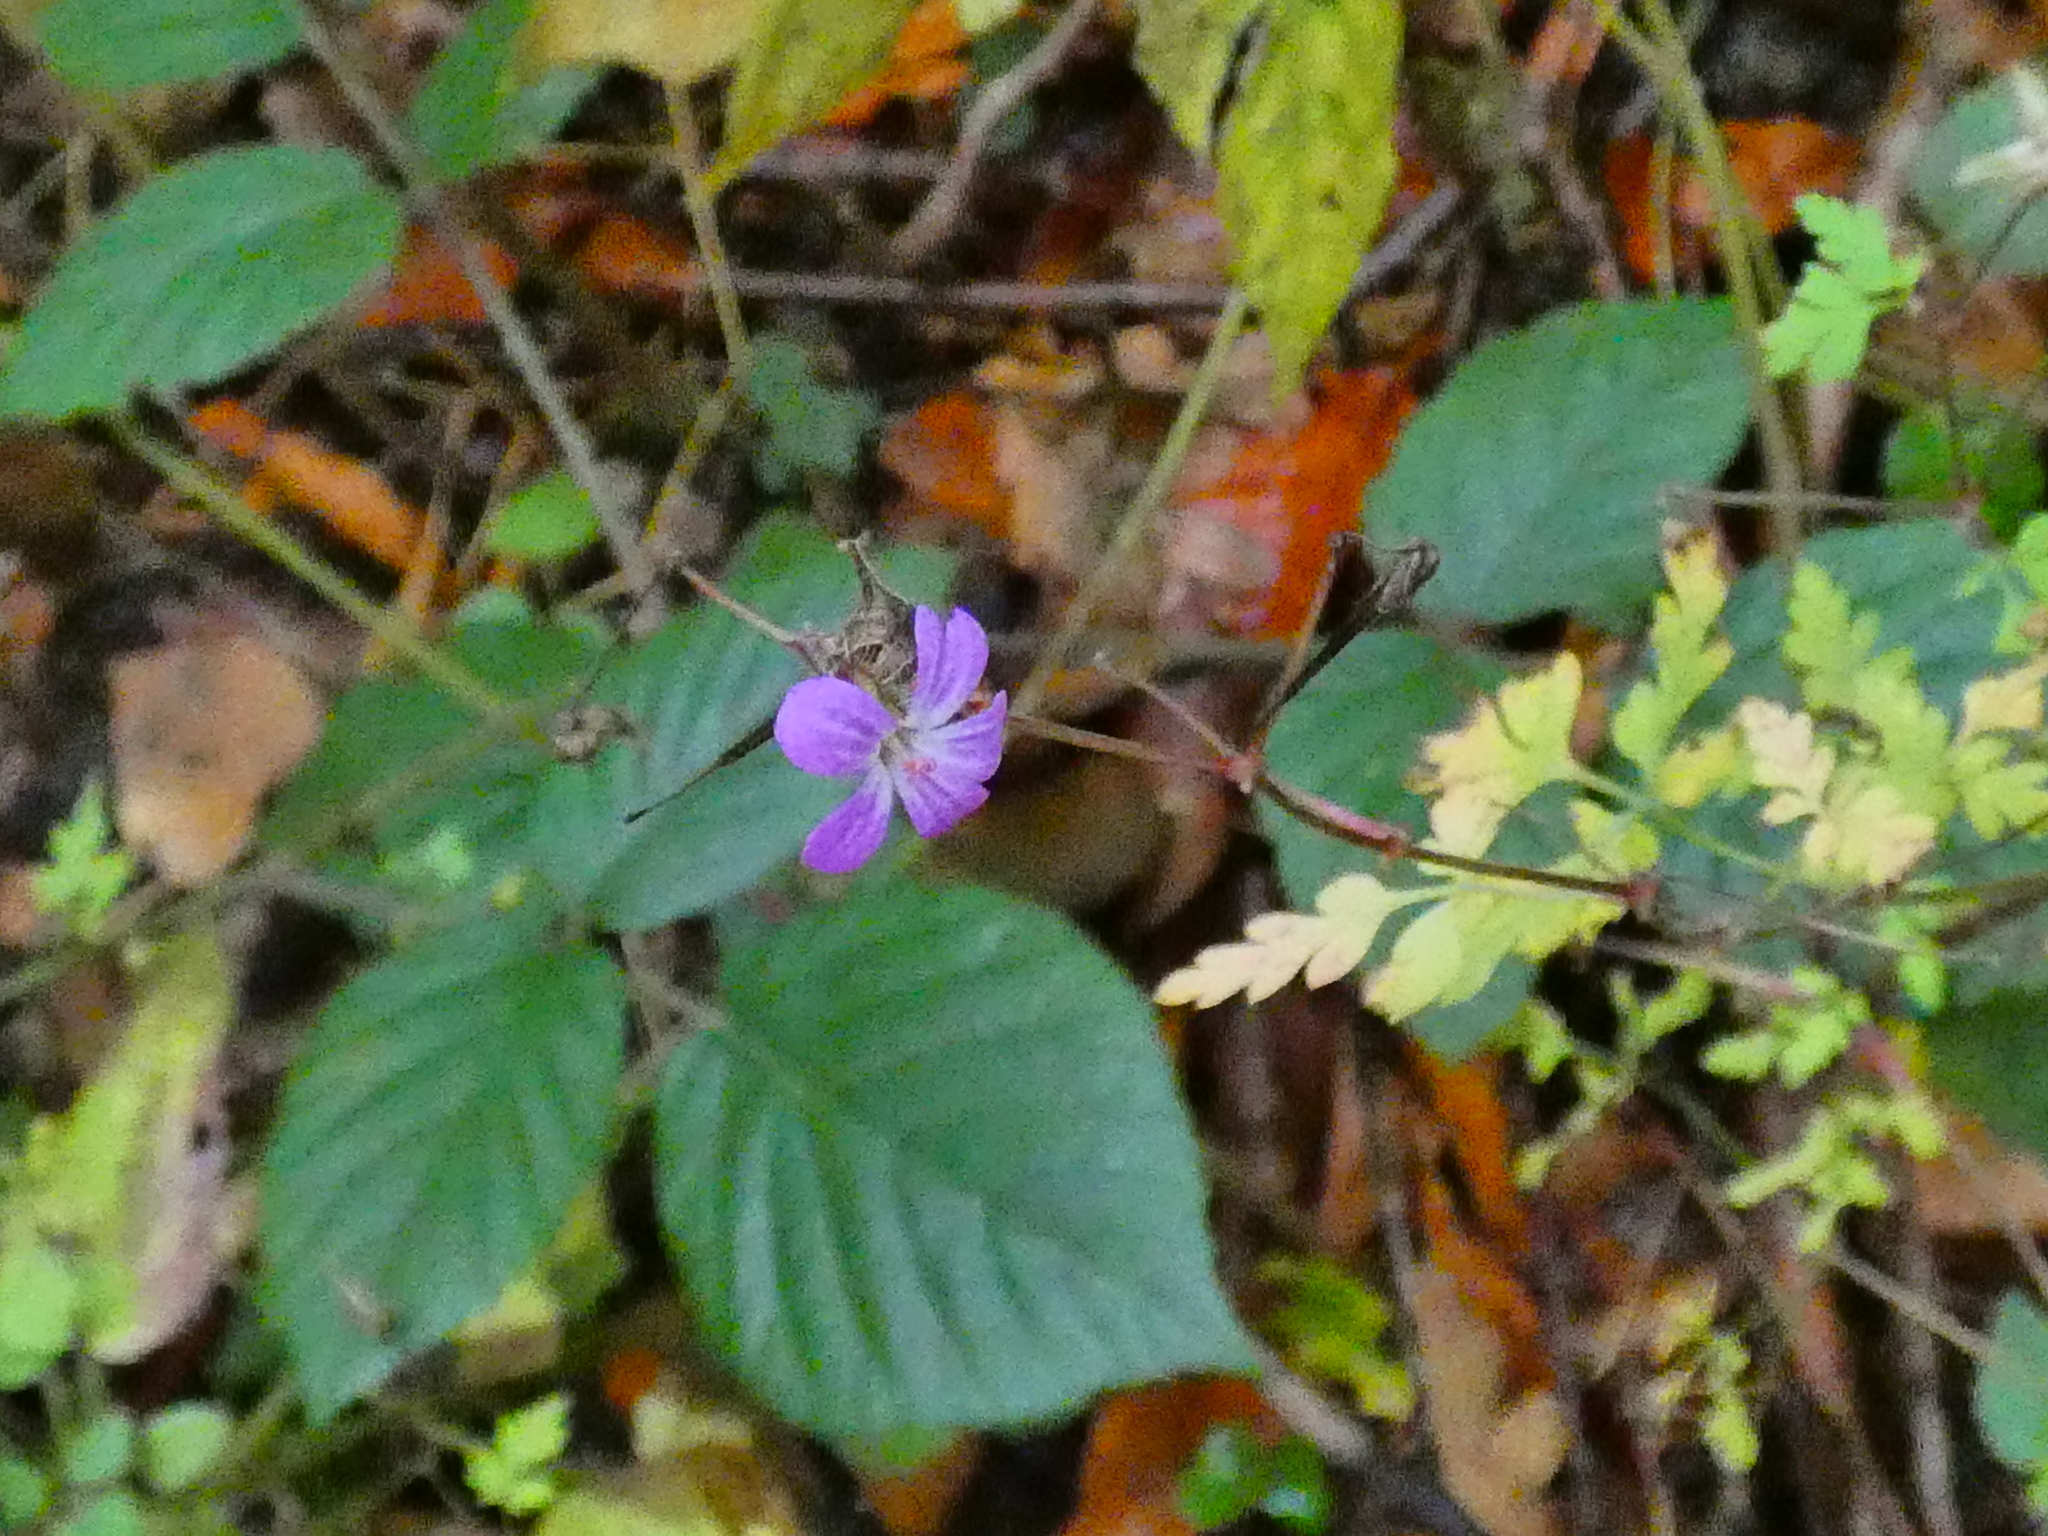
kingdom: Plantae
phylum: Tracheophyta
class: Magnoliopsida
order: Geraniales
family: Geraniaceae
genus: Geranium
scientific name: Geranium robertianum
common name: Herb-robert
